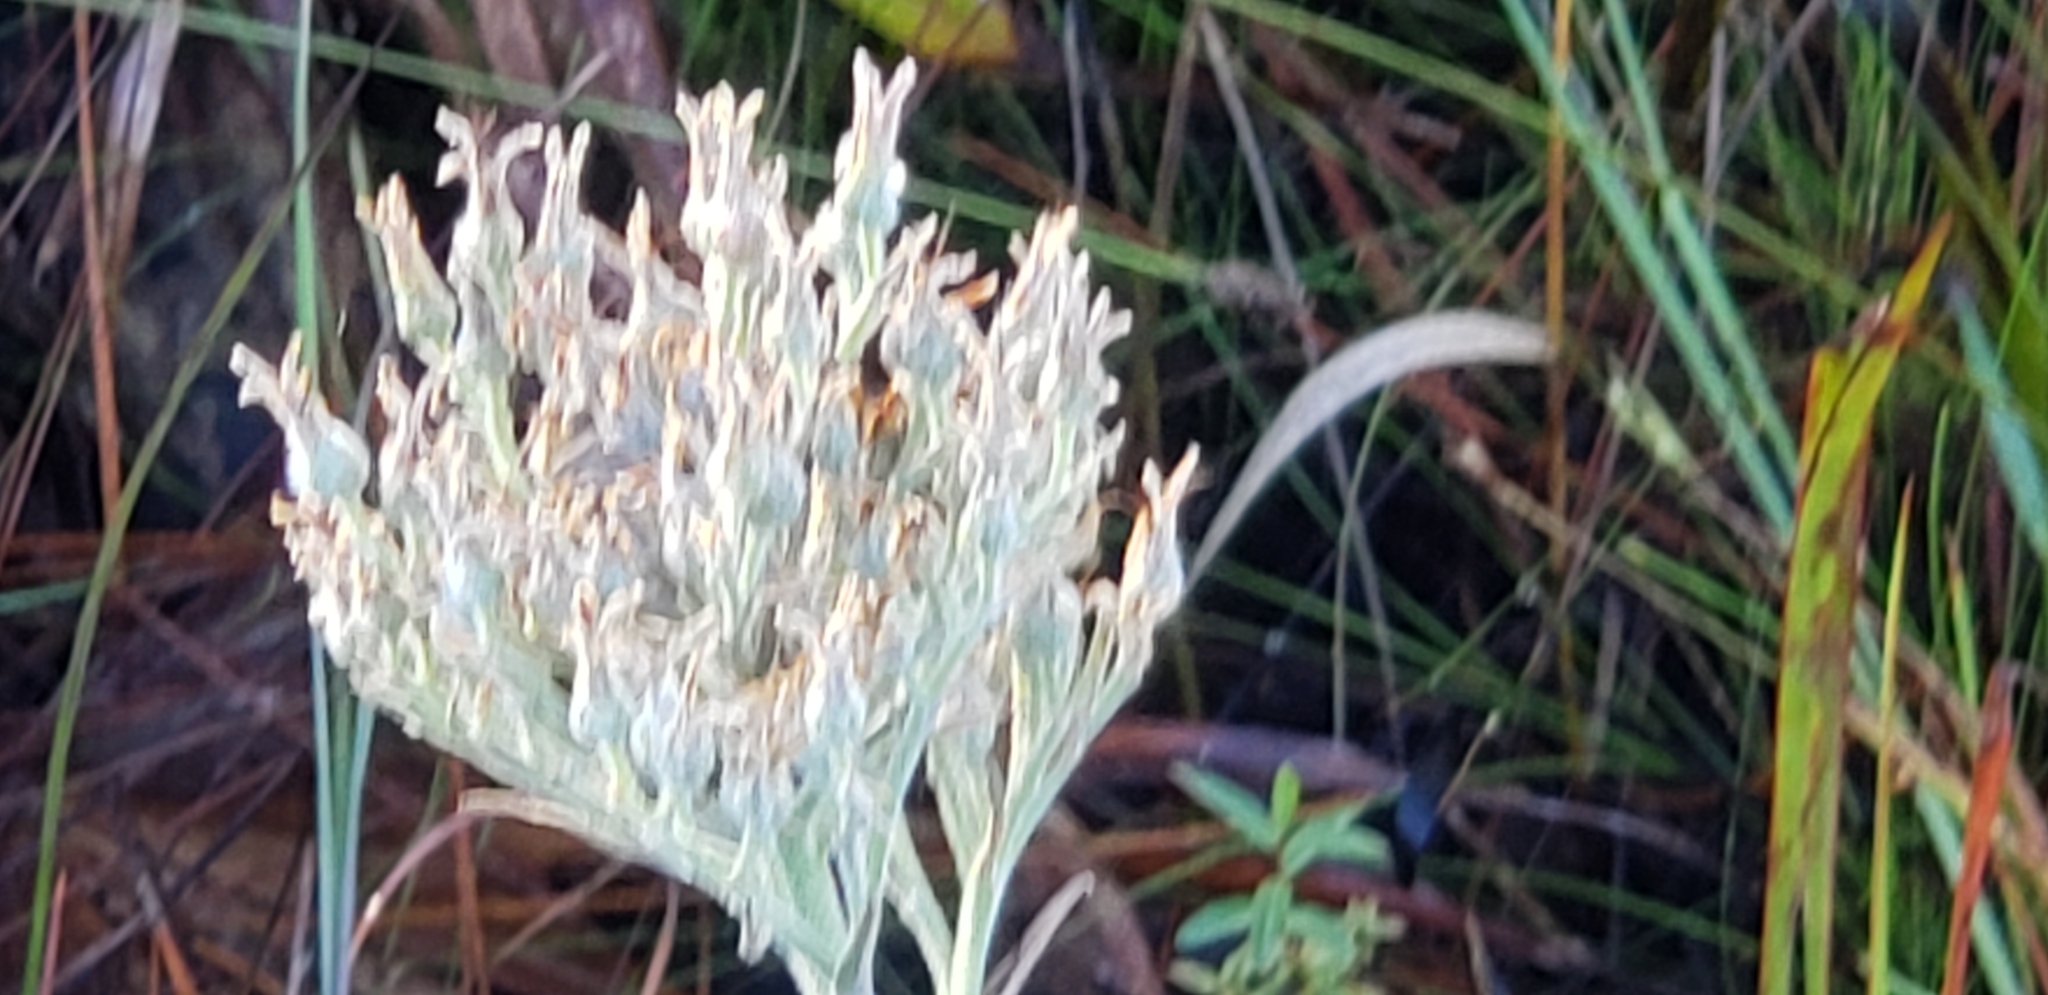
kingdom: Plantae
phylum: Tracheophyta
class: Liliopsida
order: Commelinales
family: Haemodoraceae
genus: Lachnanthes
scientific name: Lachnanthes caroliana
